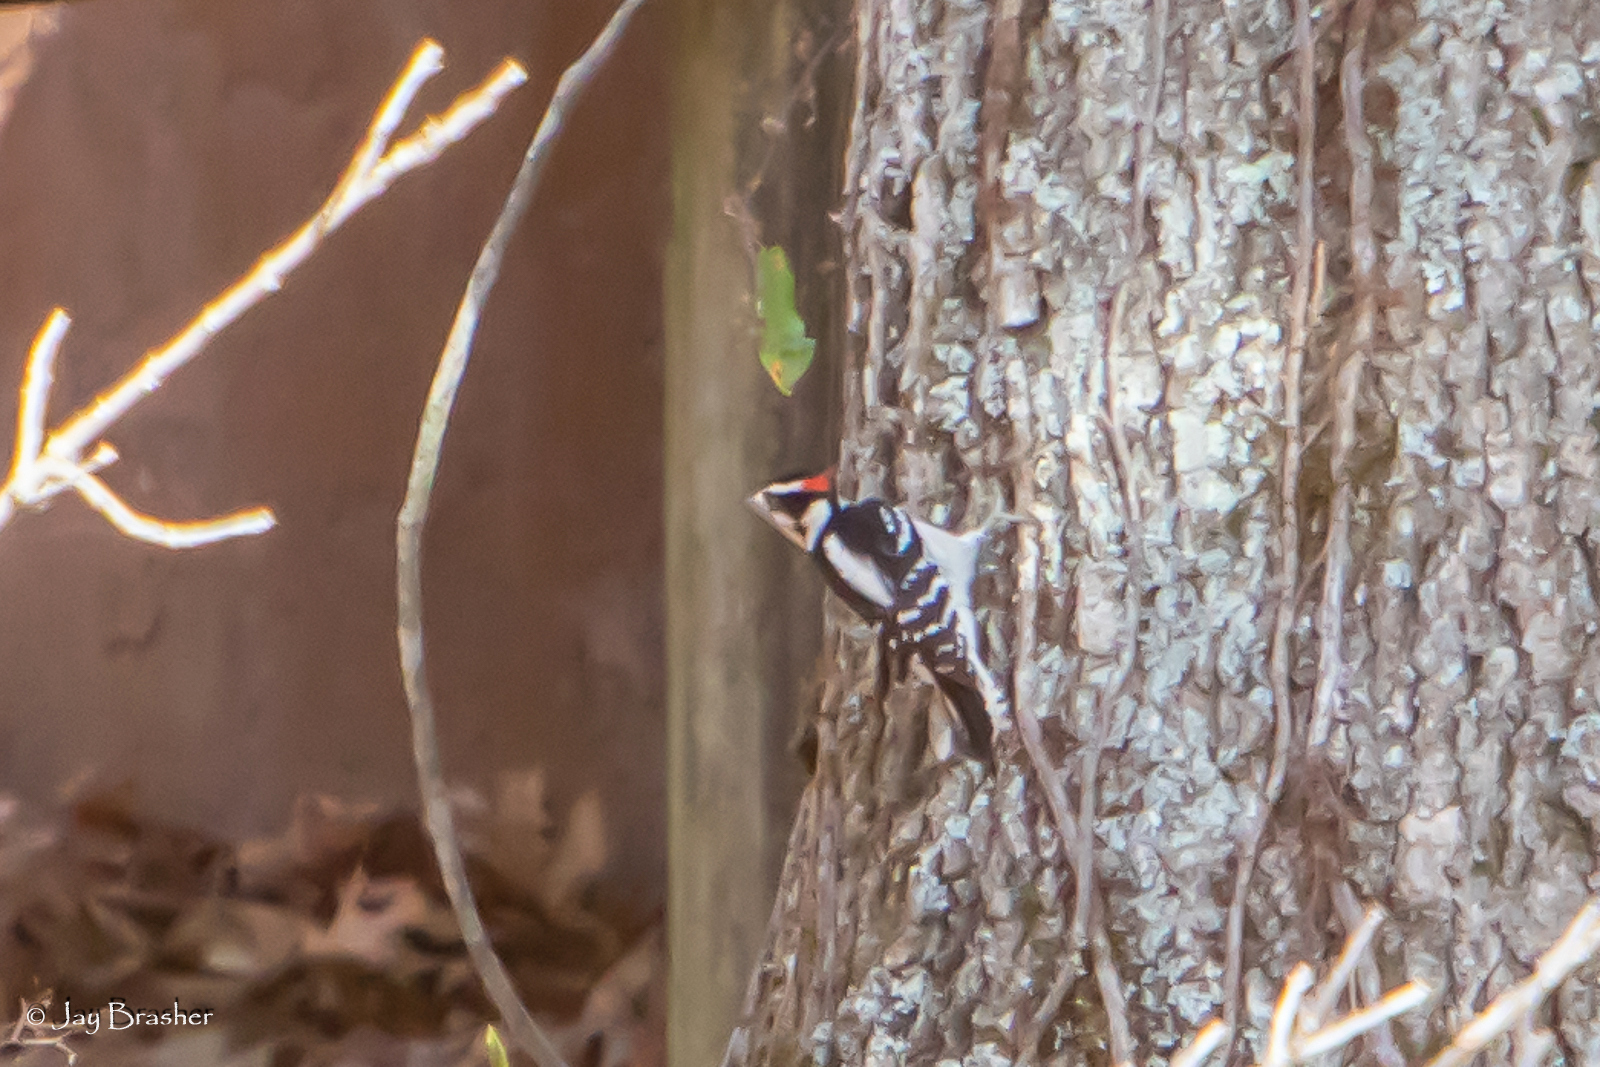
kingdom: Animalia
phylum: Chordata
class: Aves
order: Piciformes
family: Picidae
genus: Dryobates
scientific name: Dryobates pubescens
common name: Downy woodpecker
